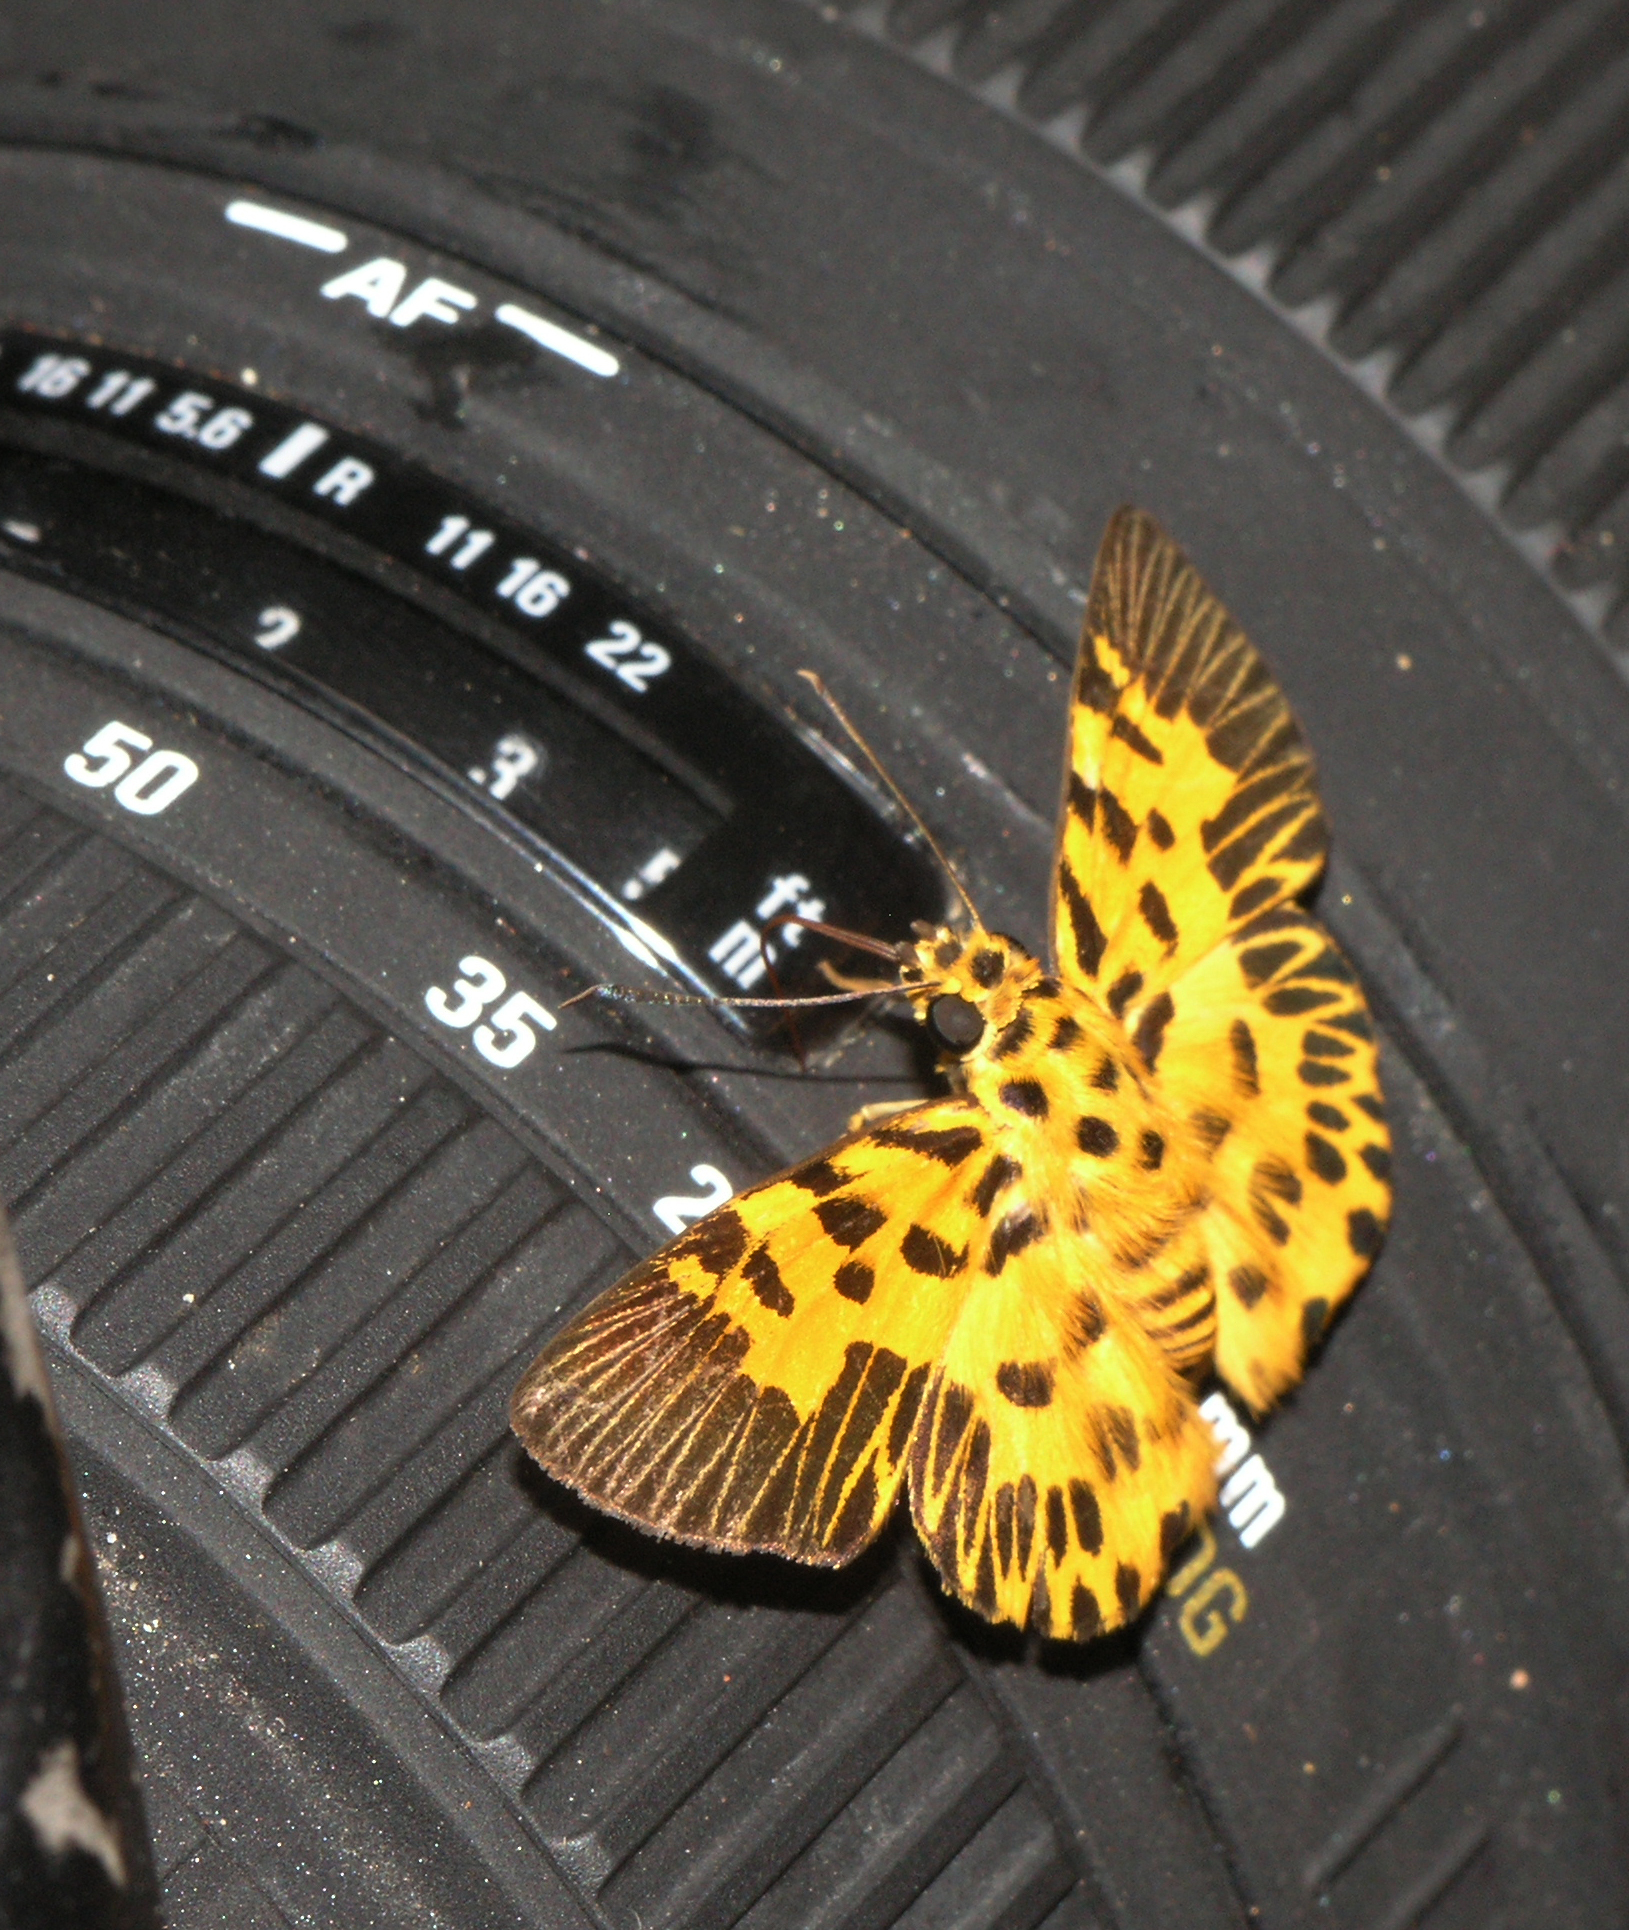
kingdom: Animalia
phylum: Arthropoda
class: Insecta
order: Lepidoptera
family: Hesperiidae
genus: Odina
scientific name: Odina decoratus
